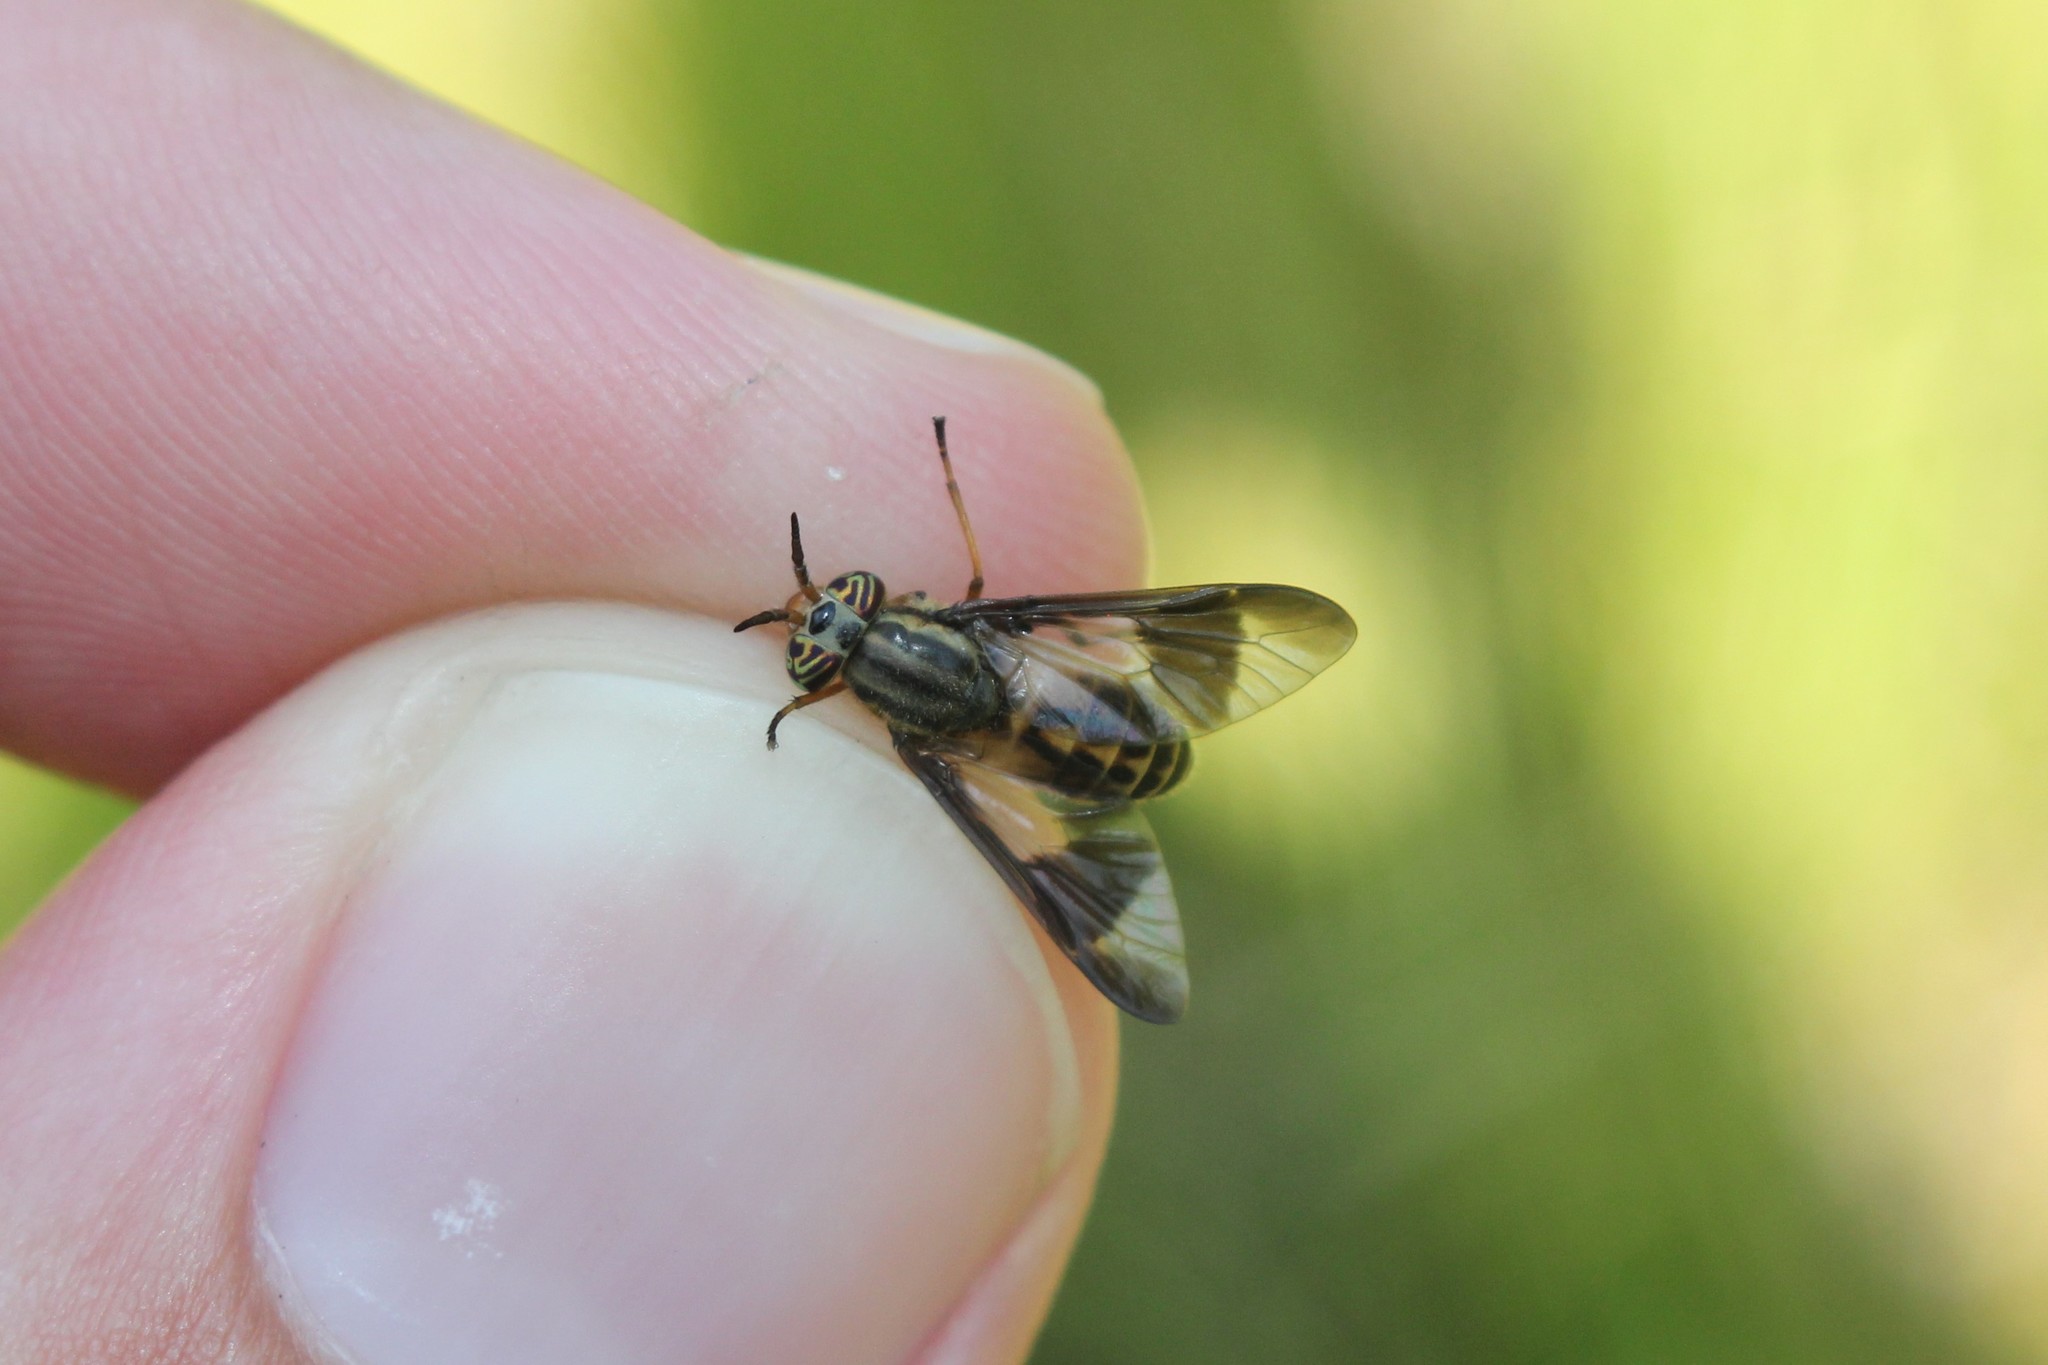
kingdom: Animalia
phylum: Arthropoda
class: Insecta
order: Diptera
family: Tabanidae
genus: Chrysops
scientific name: Chrysops montanus
